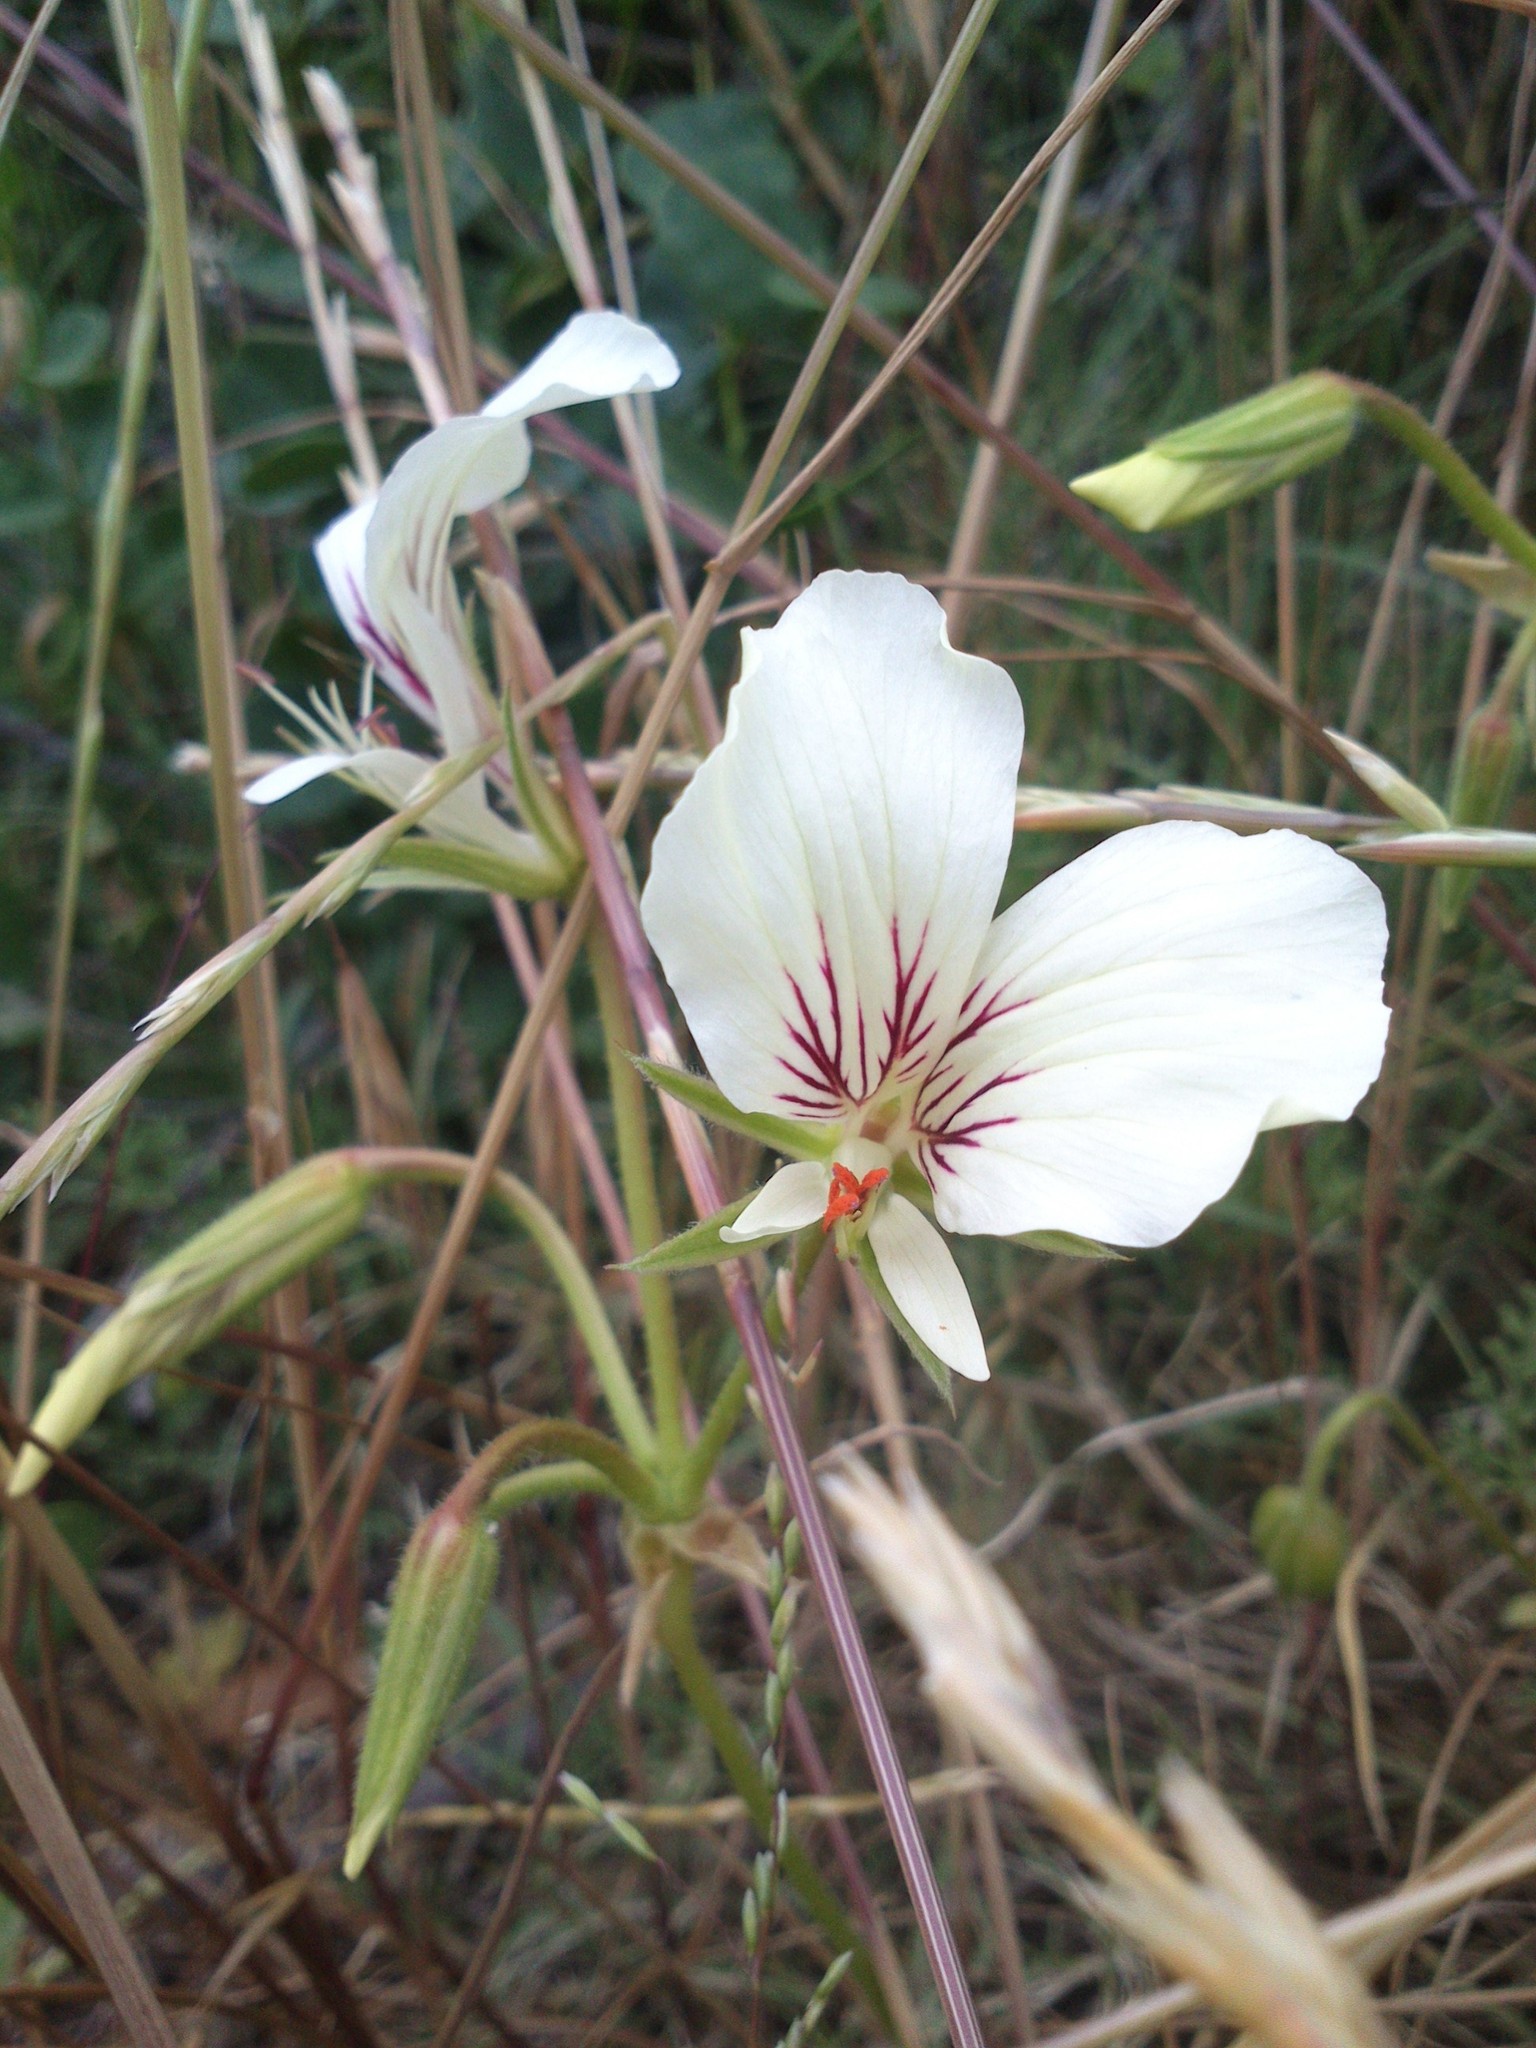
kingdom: Plantae
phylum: Tracheophyta
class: Magnoliopsida
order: Geraniales
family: Geraniaceae
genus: Pelargonium
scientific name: Pelargonium longicaule
